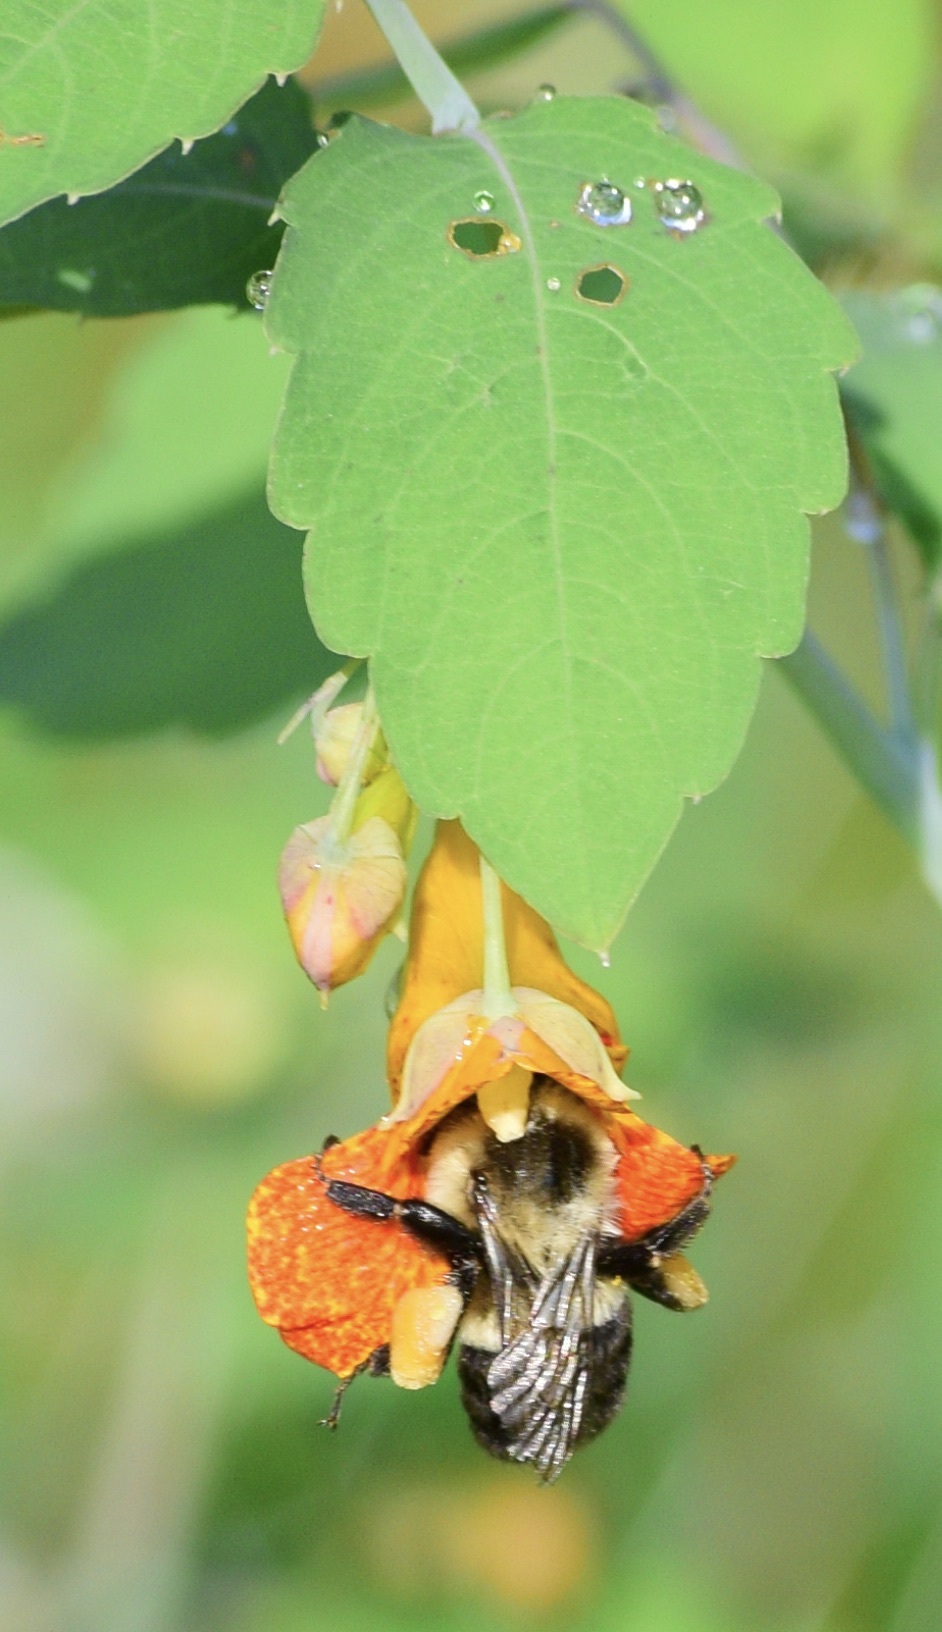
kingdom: Animalia
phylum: Arthropoda
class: Insecta
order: Hymenoptera
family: Apidae
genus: Bombus
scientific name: Bombus impatiens
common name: Common eastern bumble bee
